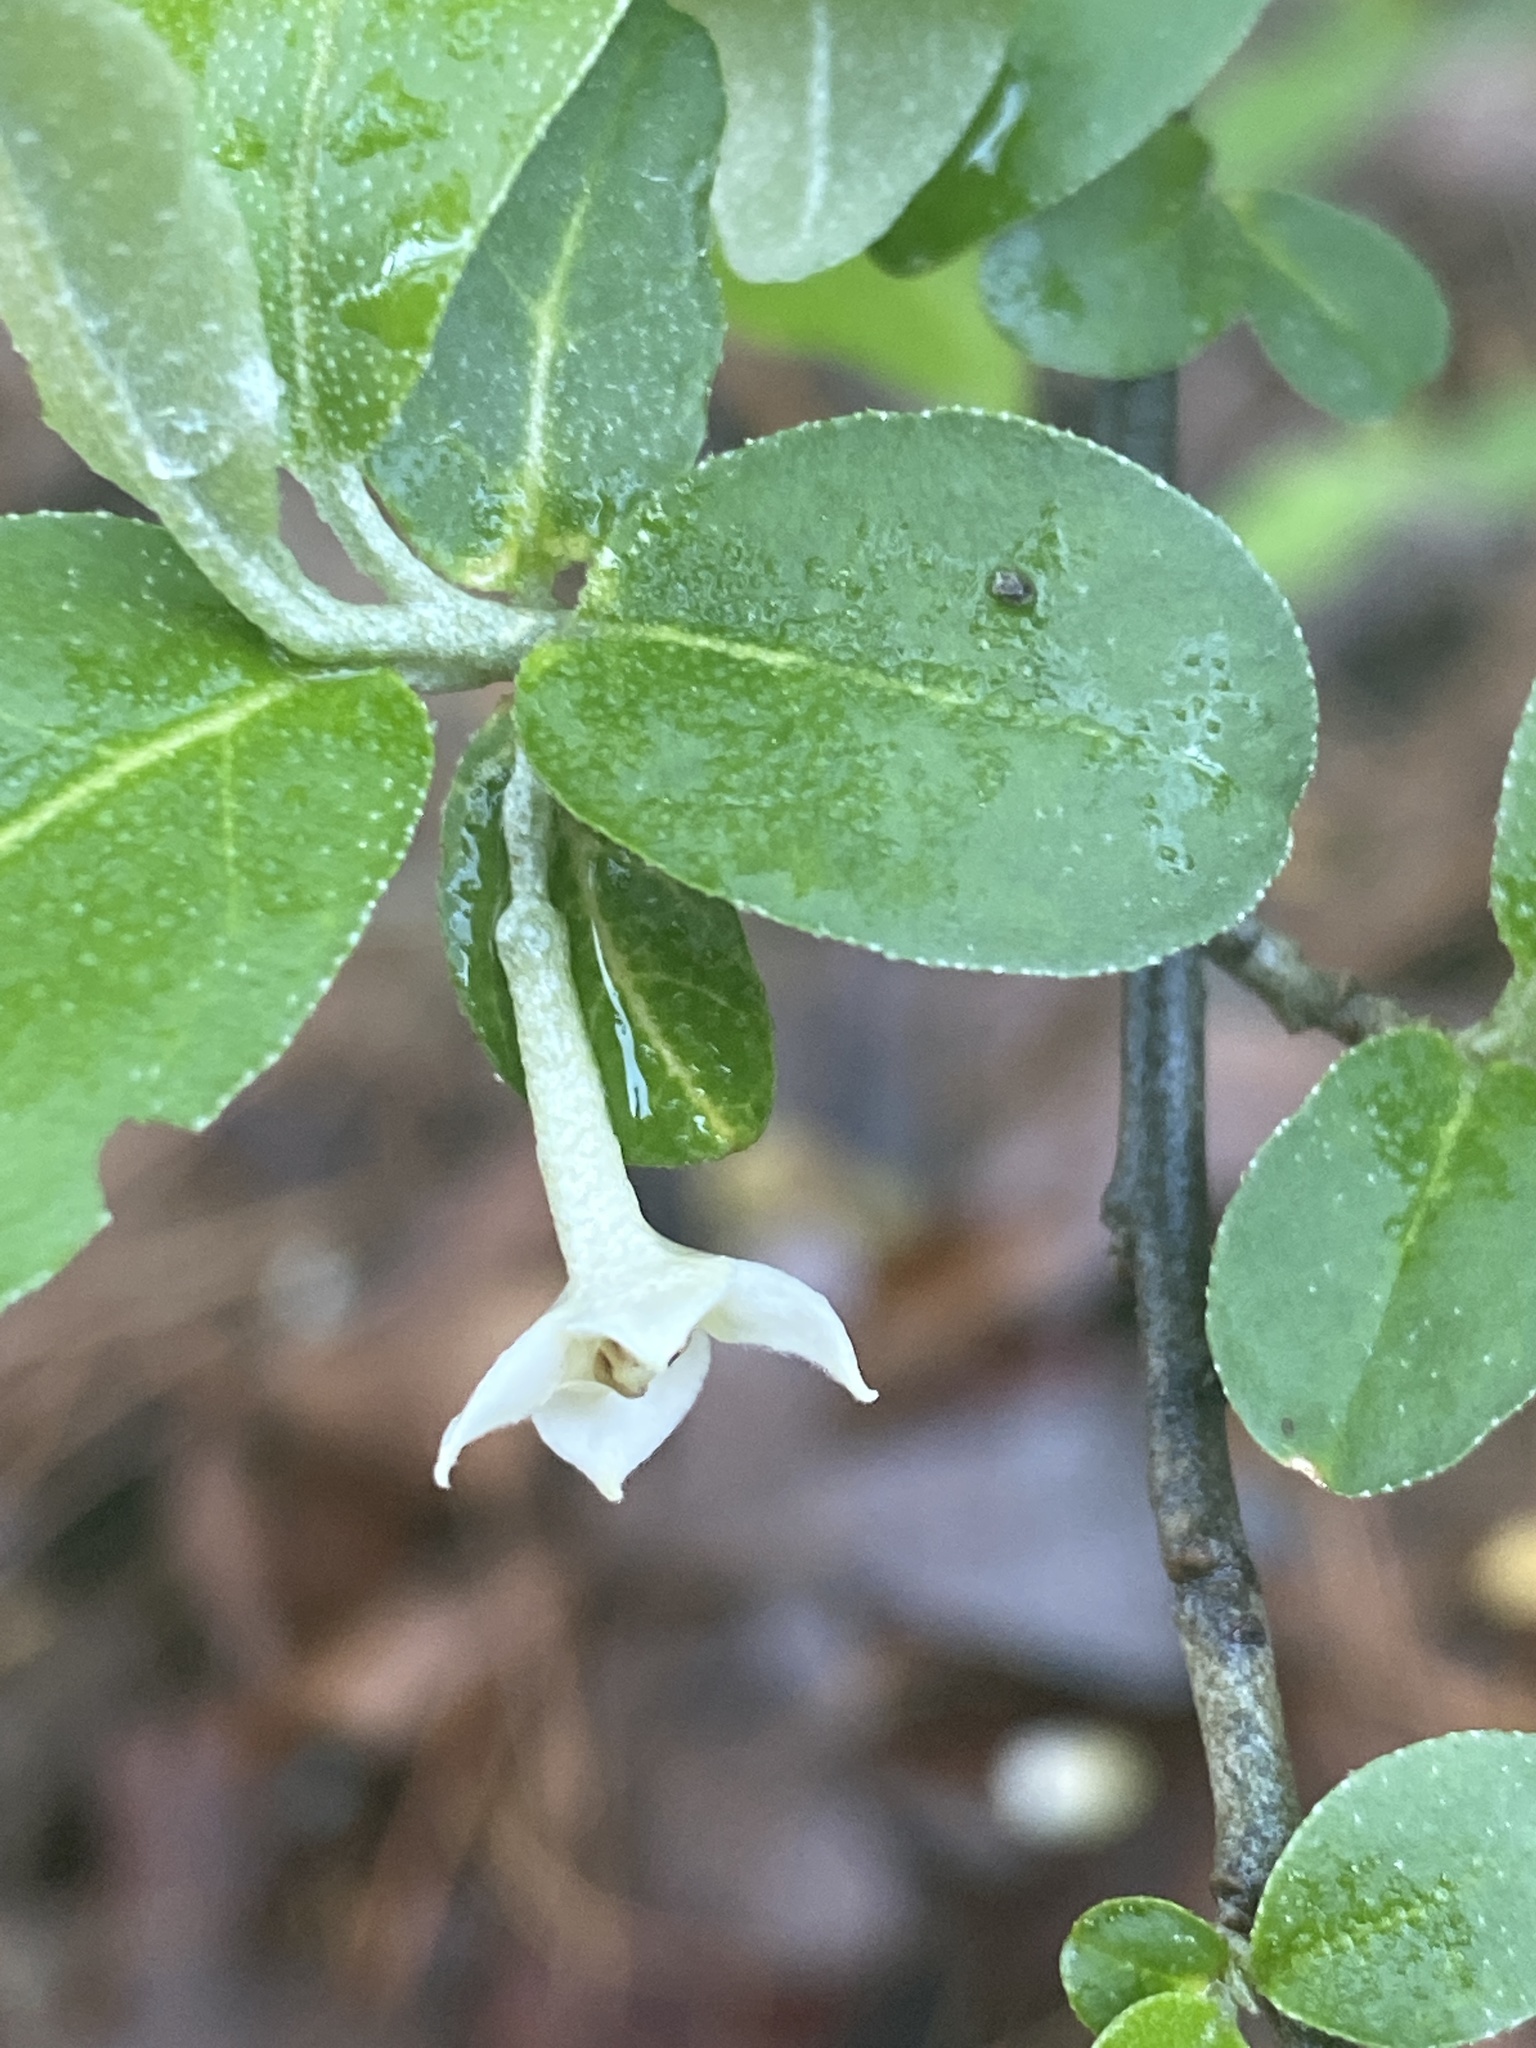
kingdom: Plantae
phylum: Tracheophyta
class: Magnoliopsida
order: Rosales
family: Elaeagnaceae
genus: Elaeagnus
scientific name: Elaeagnus umbellata
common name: Autumn olive
